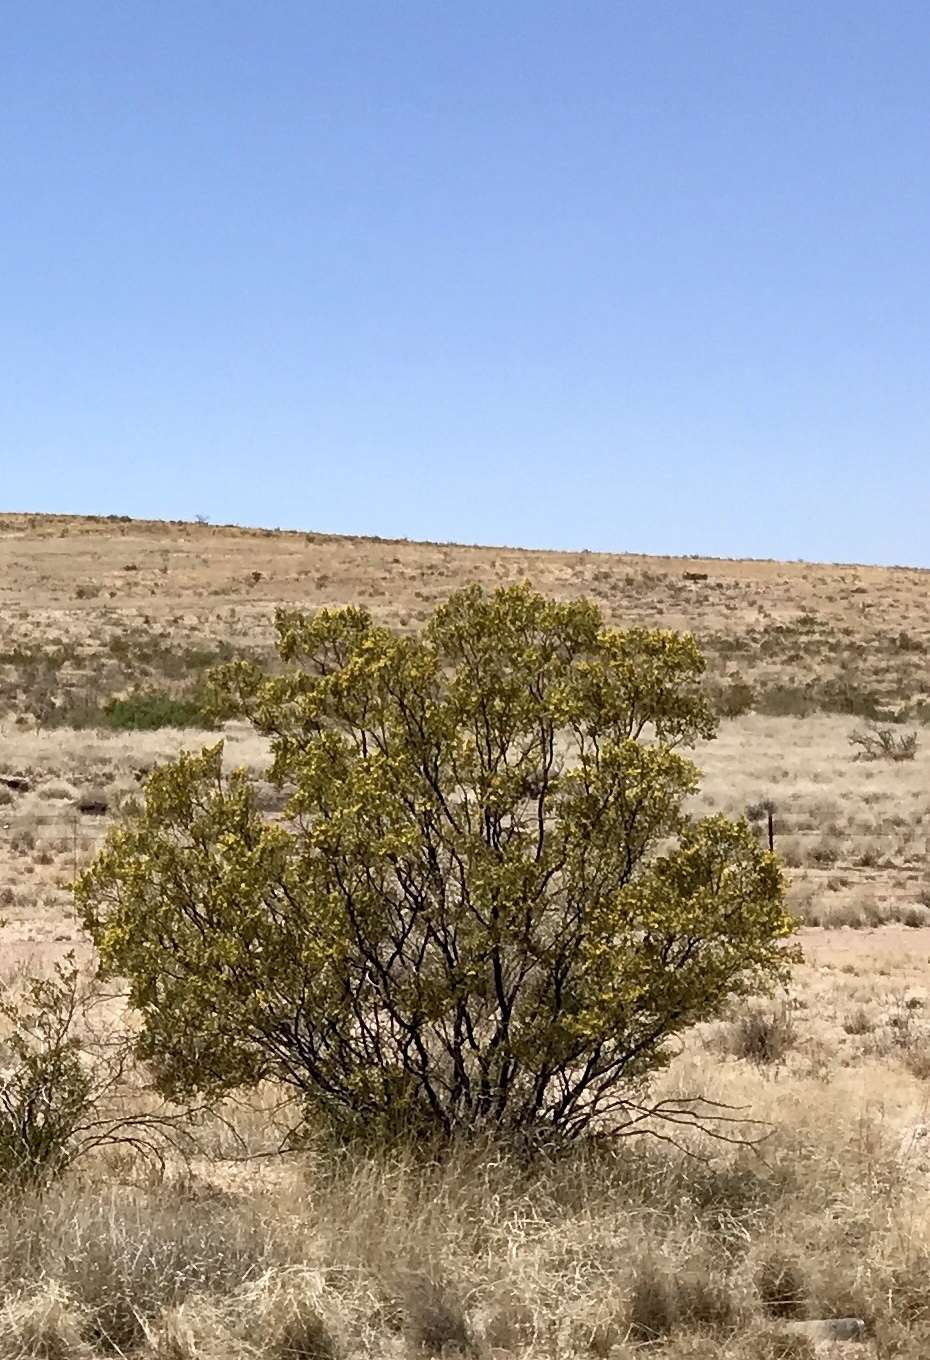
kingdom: Plantae
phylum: Tracheophyta
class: Magnoliopsida
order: Zygophyllales
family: Zygophyllaceae
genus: Larrea
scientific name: Larrea tridentata
